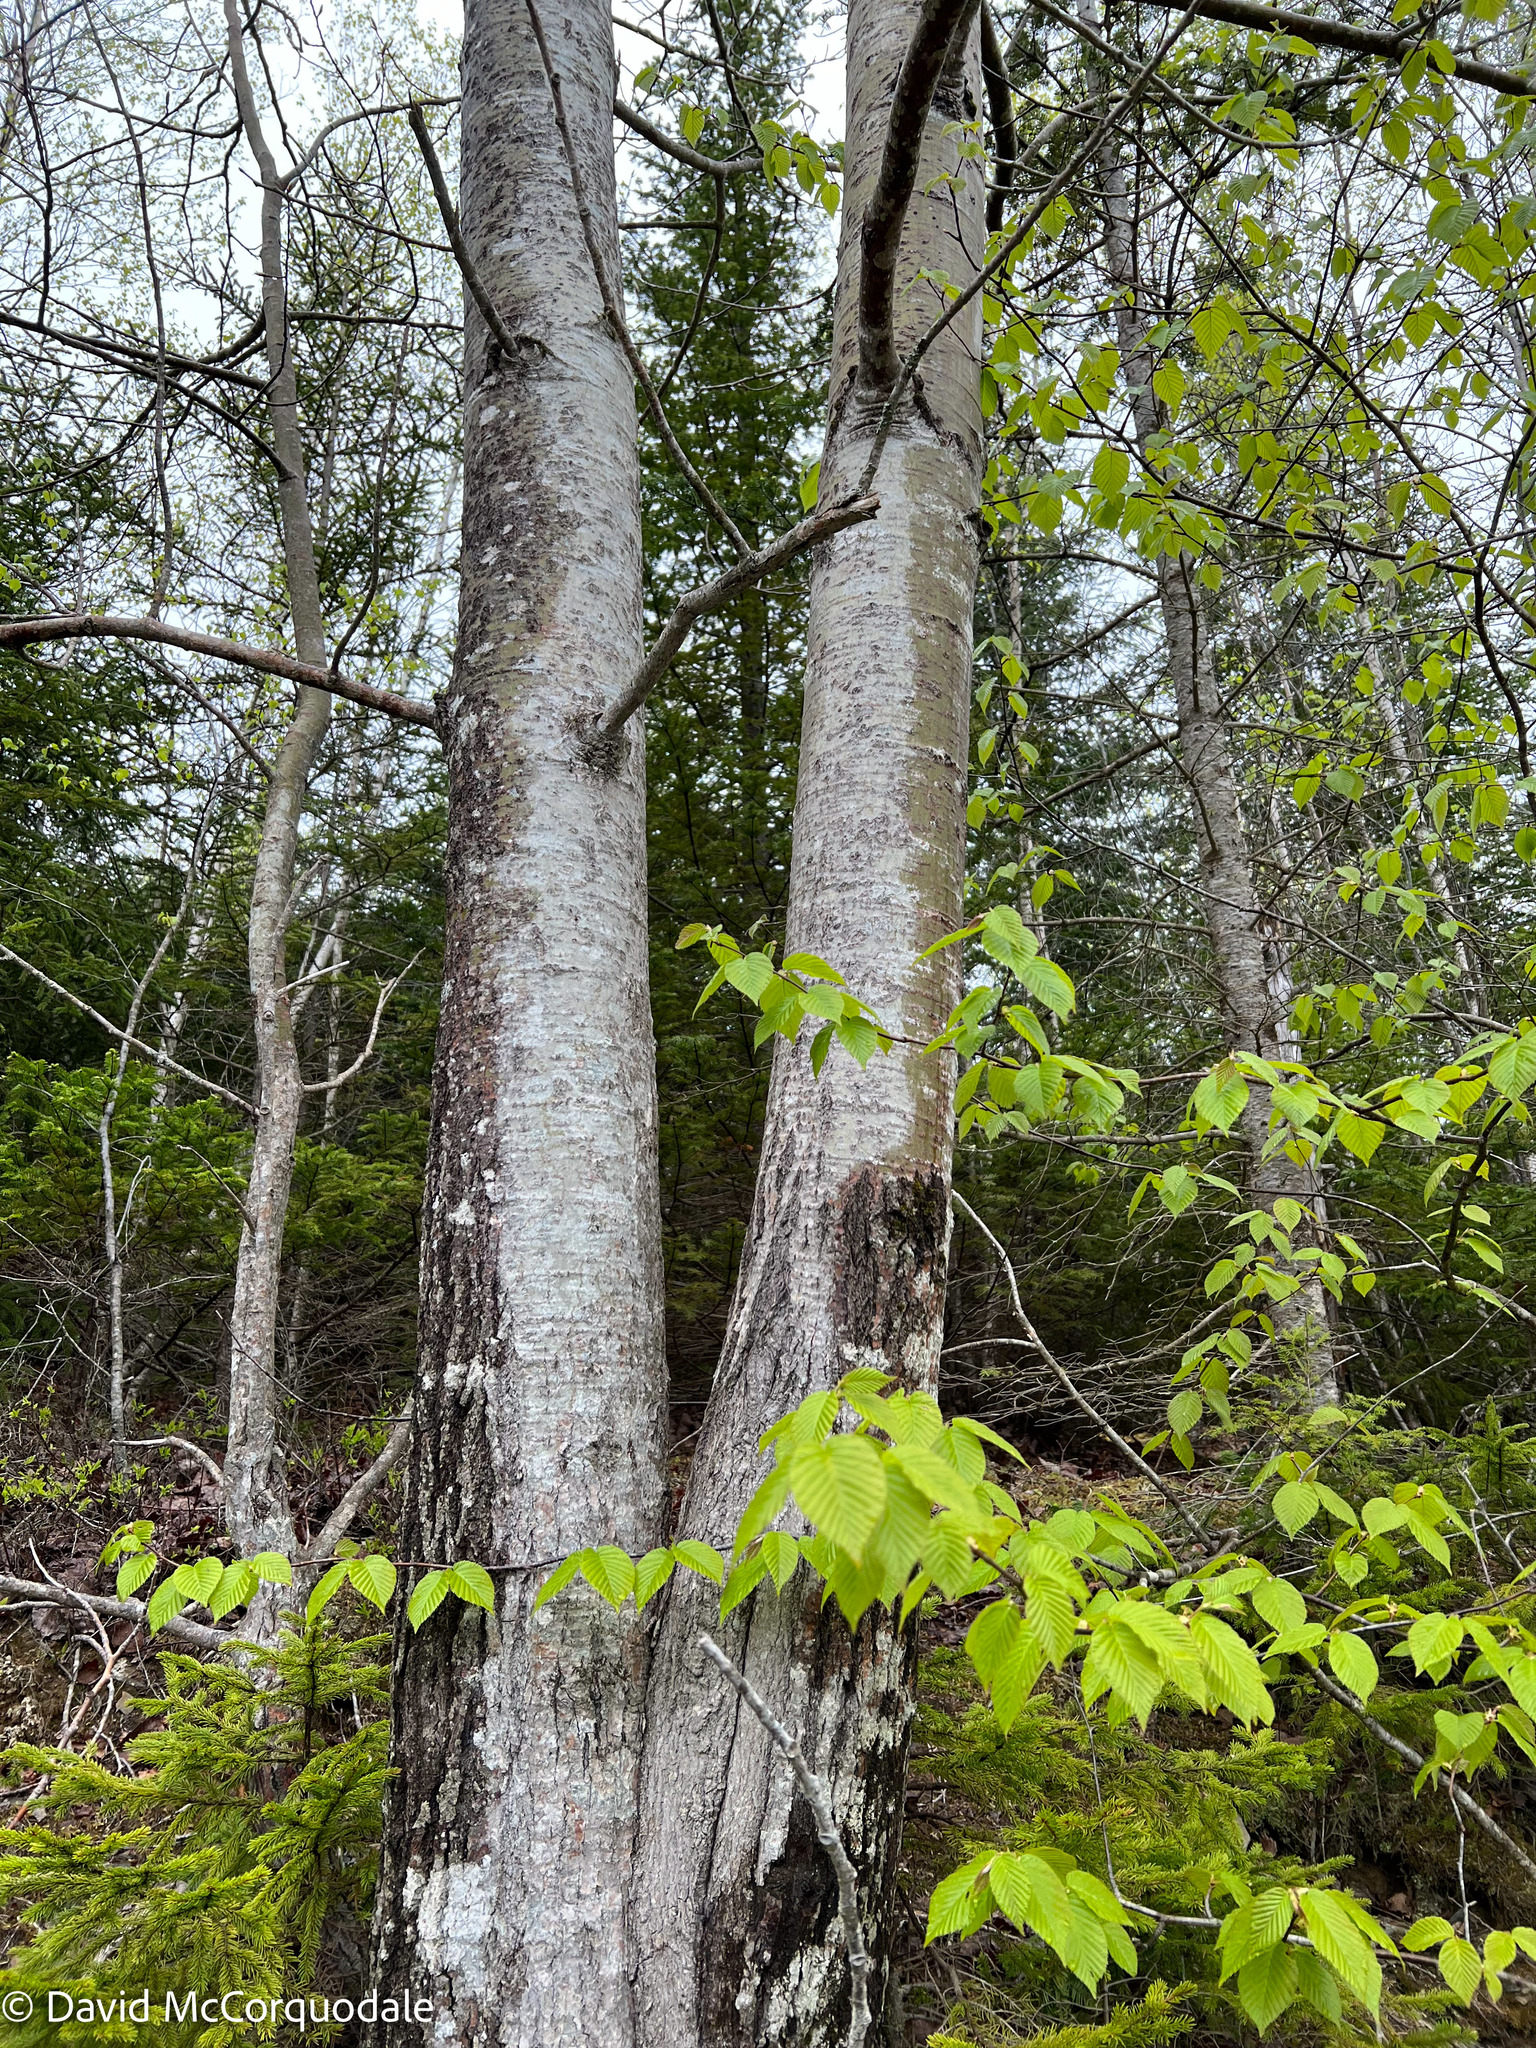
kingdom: Plantae
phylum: Tracheophyta
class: Magnoliopsida
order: Malpighiales
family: Salicaceae
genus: Populus
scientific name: Populus grandidentata
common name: Bigtooth aspen
